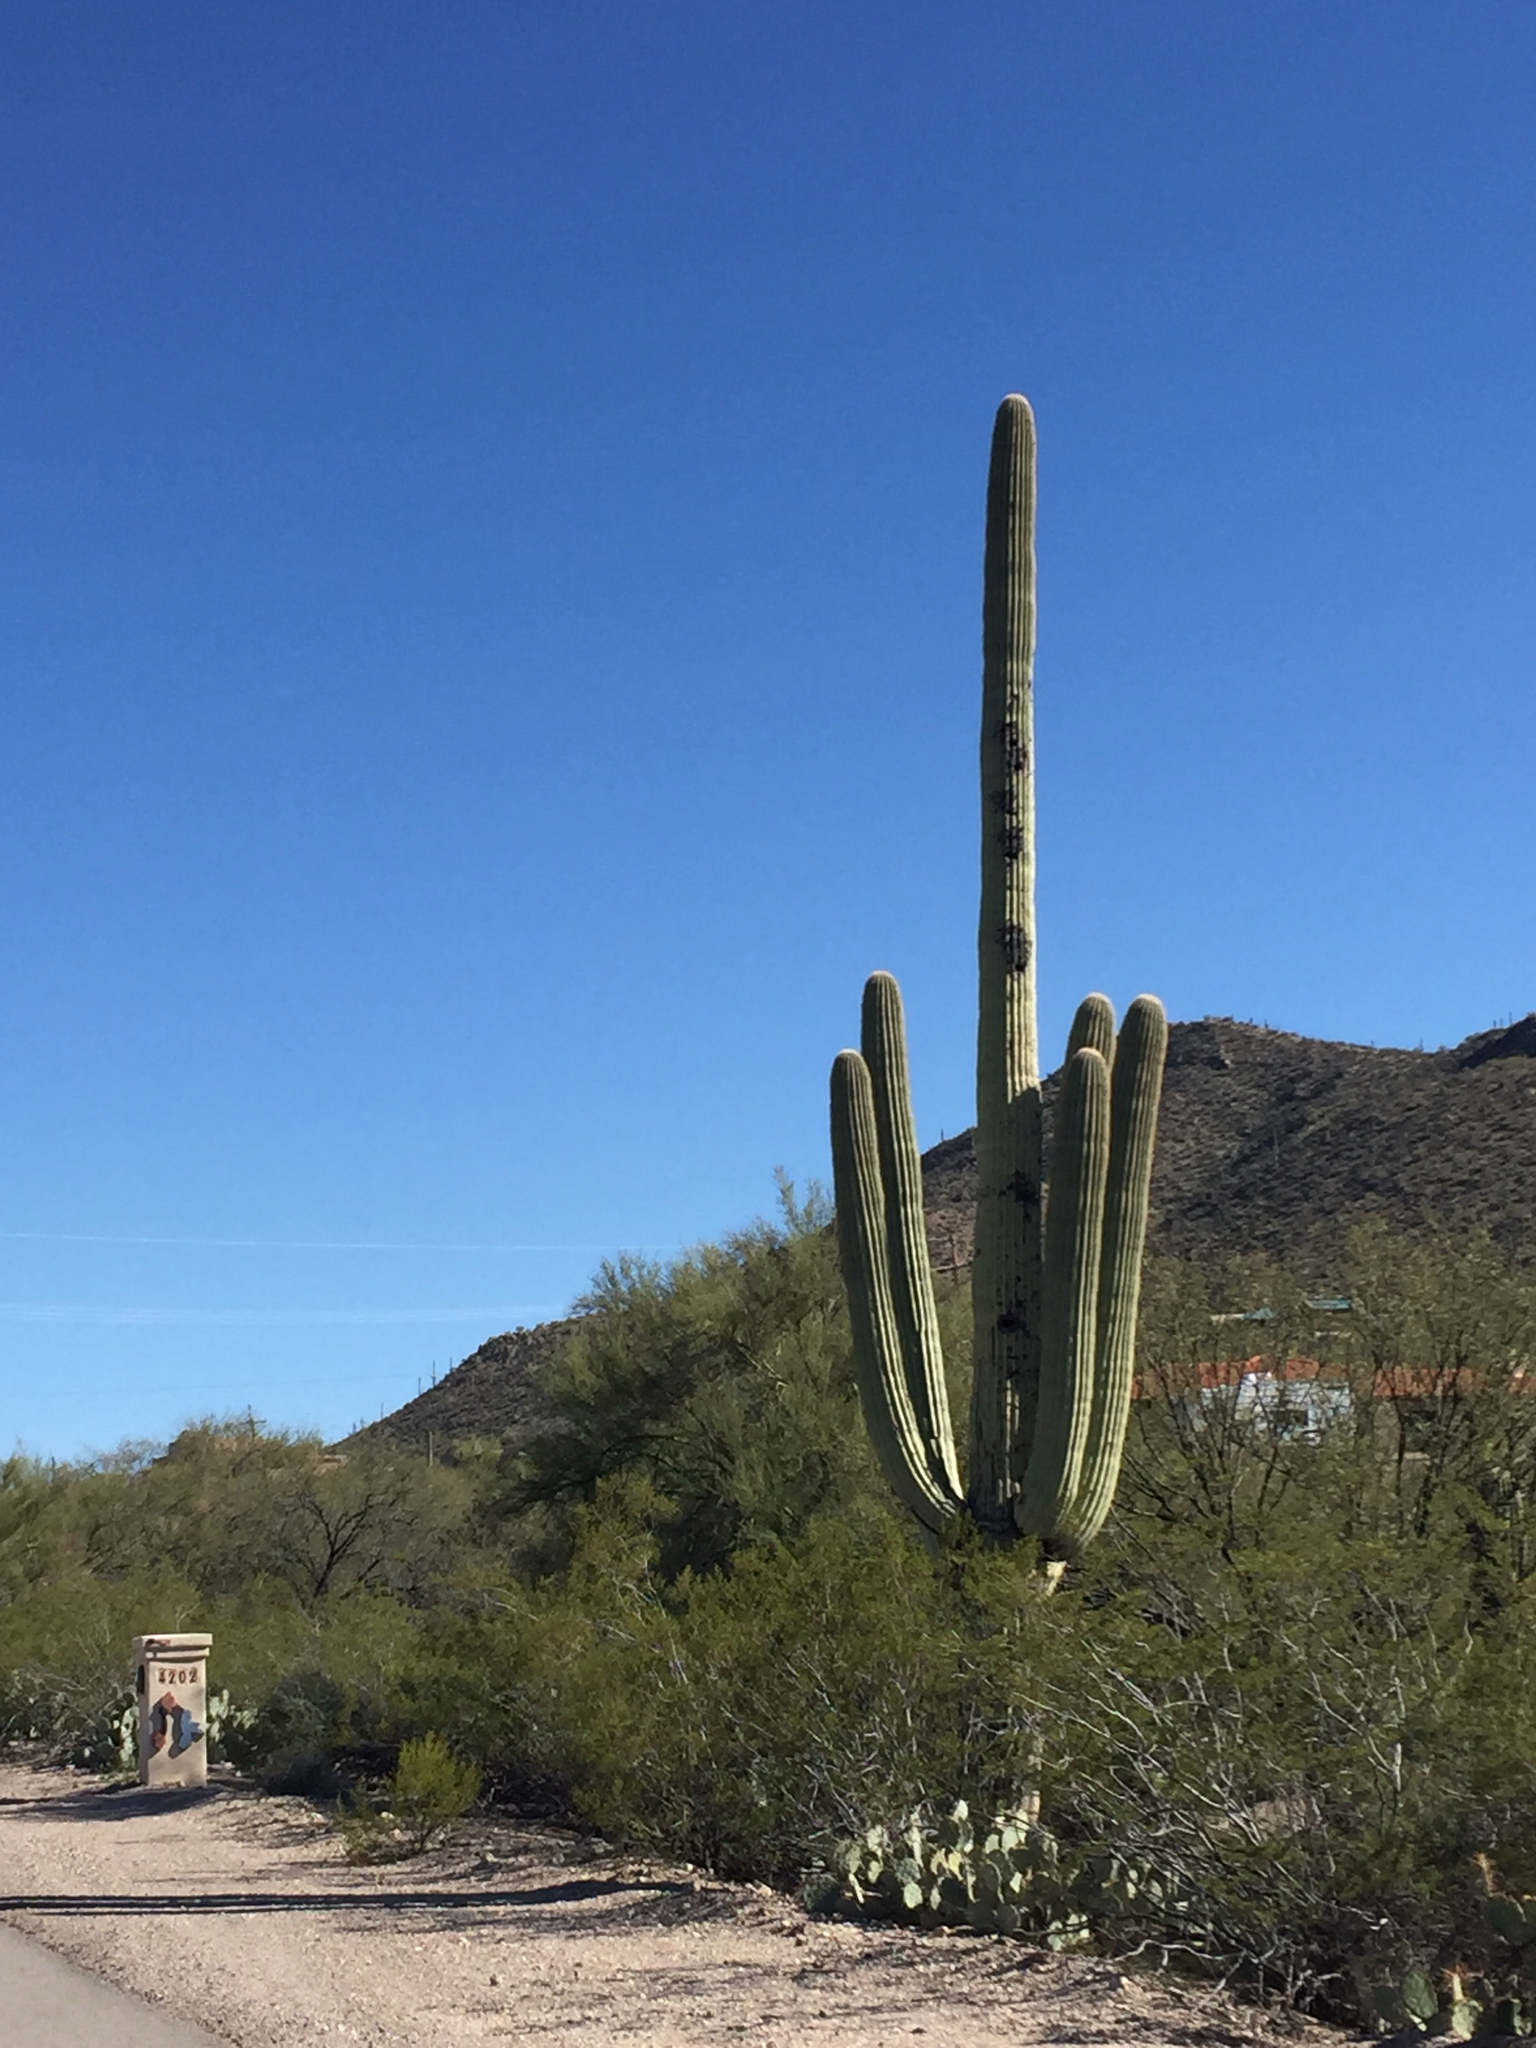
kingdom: Plantae
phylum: Tracheophyta
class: Magnoliopsida
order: Caryophyllales
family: Cactaceae
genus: Carnegiea
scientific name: Carnegiea gigantea
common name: Saguaro
